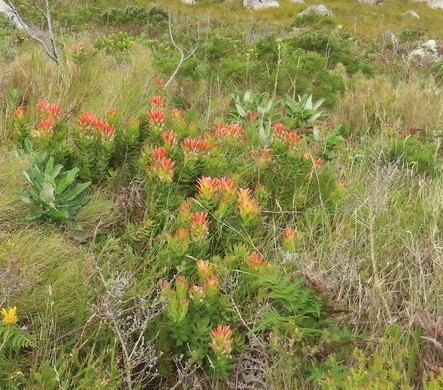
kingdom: Plantae
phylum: Tracheophyta
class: Magnoliopsida
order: Proteales
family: Proteaceae
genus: Mimetes
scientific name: Mimetes cucullatus
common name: Common pagoda
